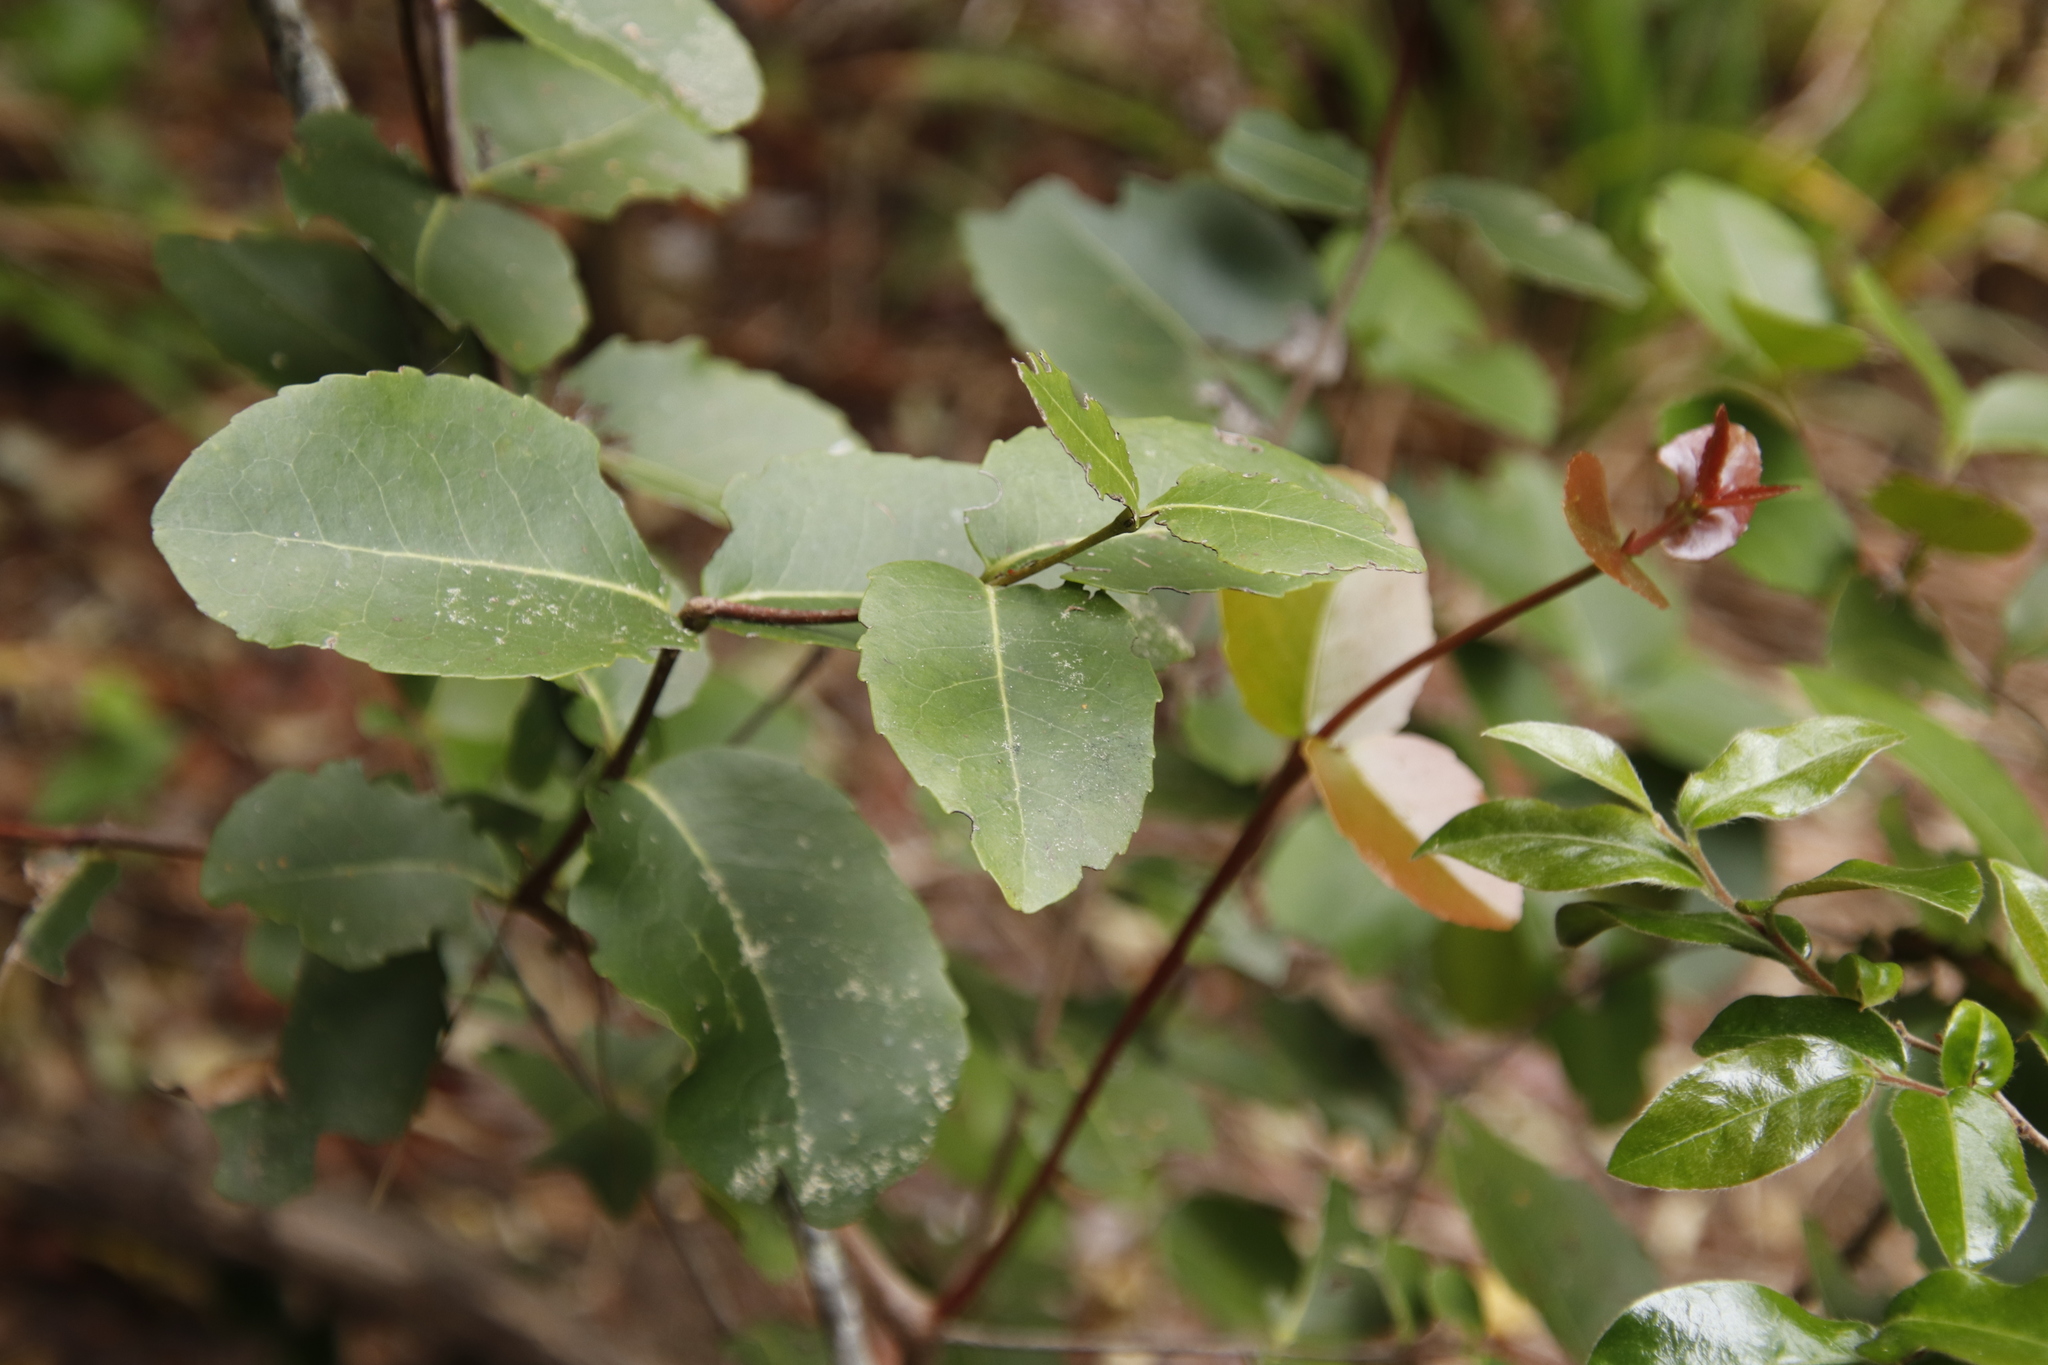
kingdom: Plantae
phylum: Tracheophyta
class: Magnoliopsida
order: Celastrales
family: Celastraceae
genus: Cassine
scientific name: Cassine peragua
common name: Cape saffron
